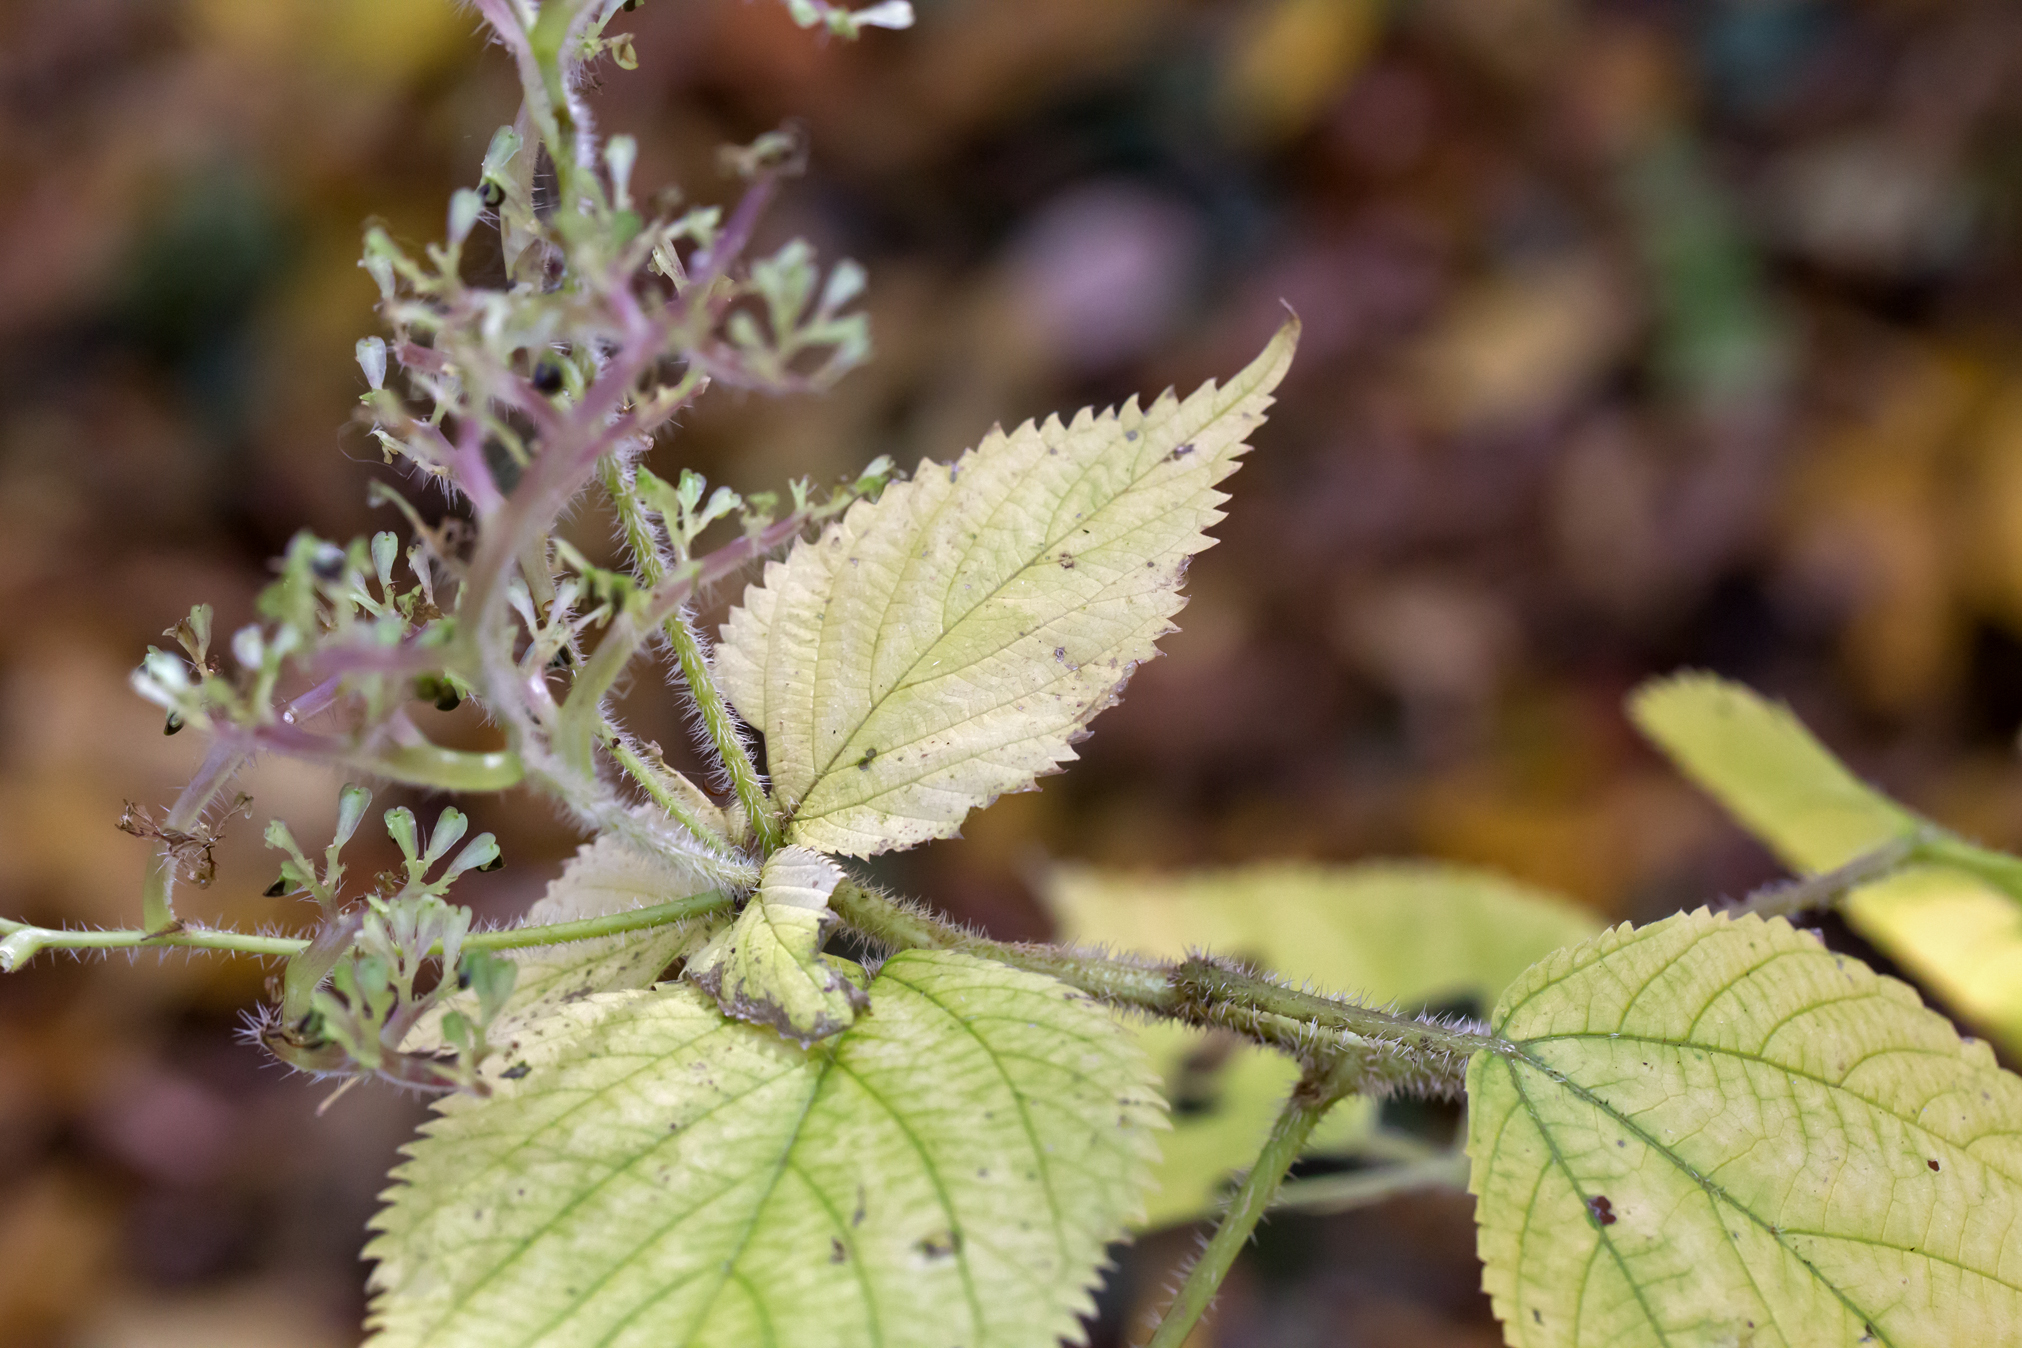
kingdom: Plantae
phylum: Tracheophyta
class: Magnoliopsida
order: Rosales
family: Urticaceae
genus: Laportea
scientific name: Laportea canadensis
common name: Canada nettle
